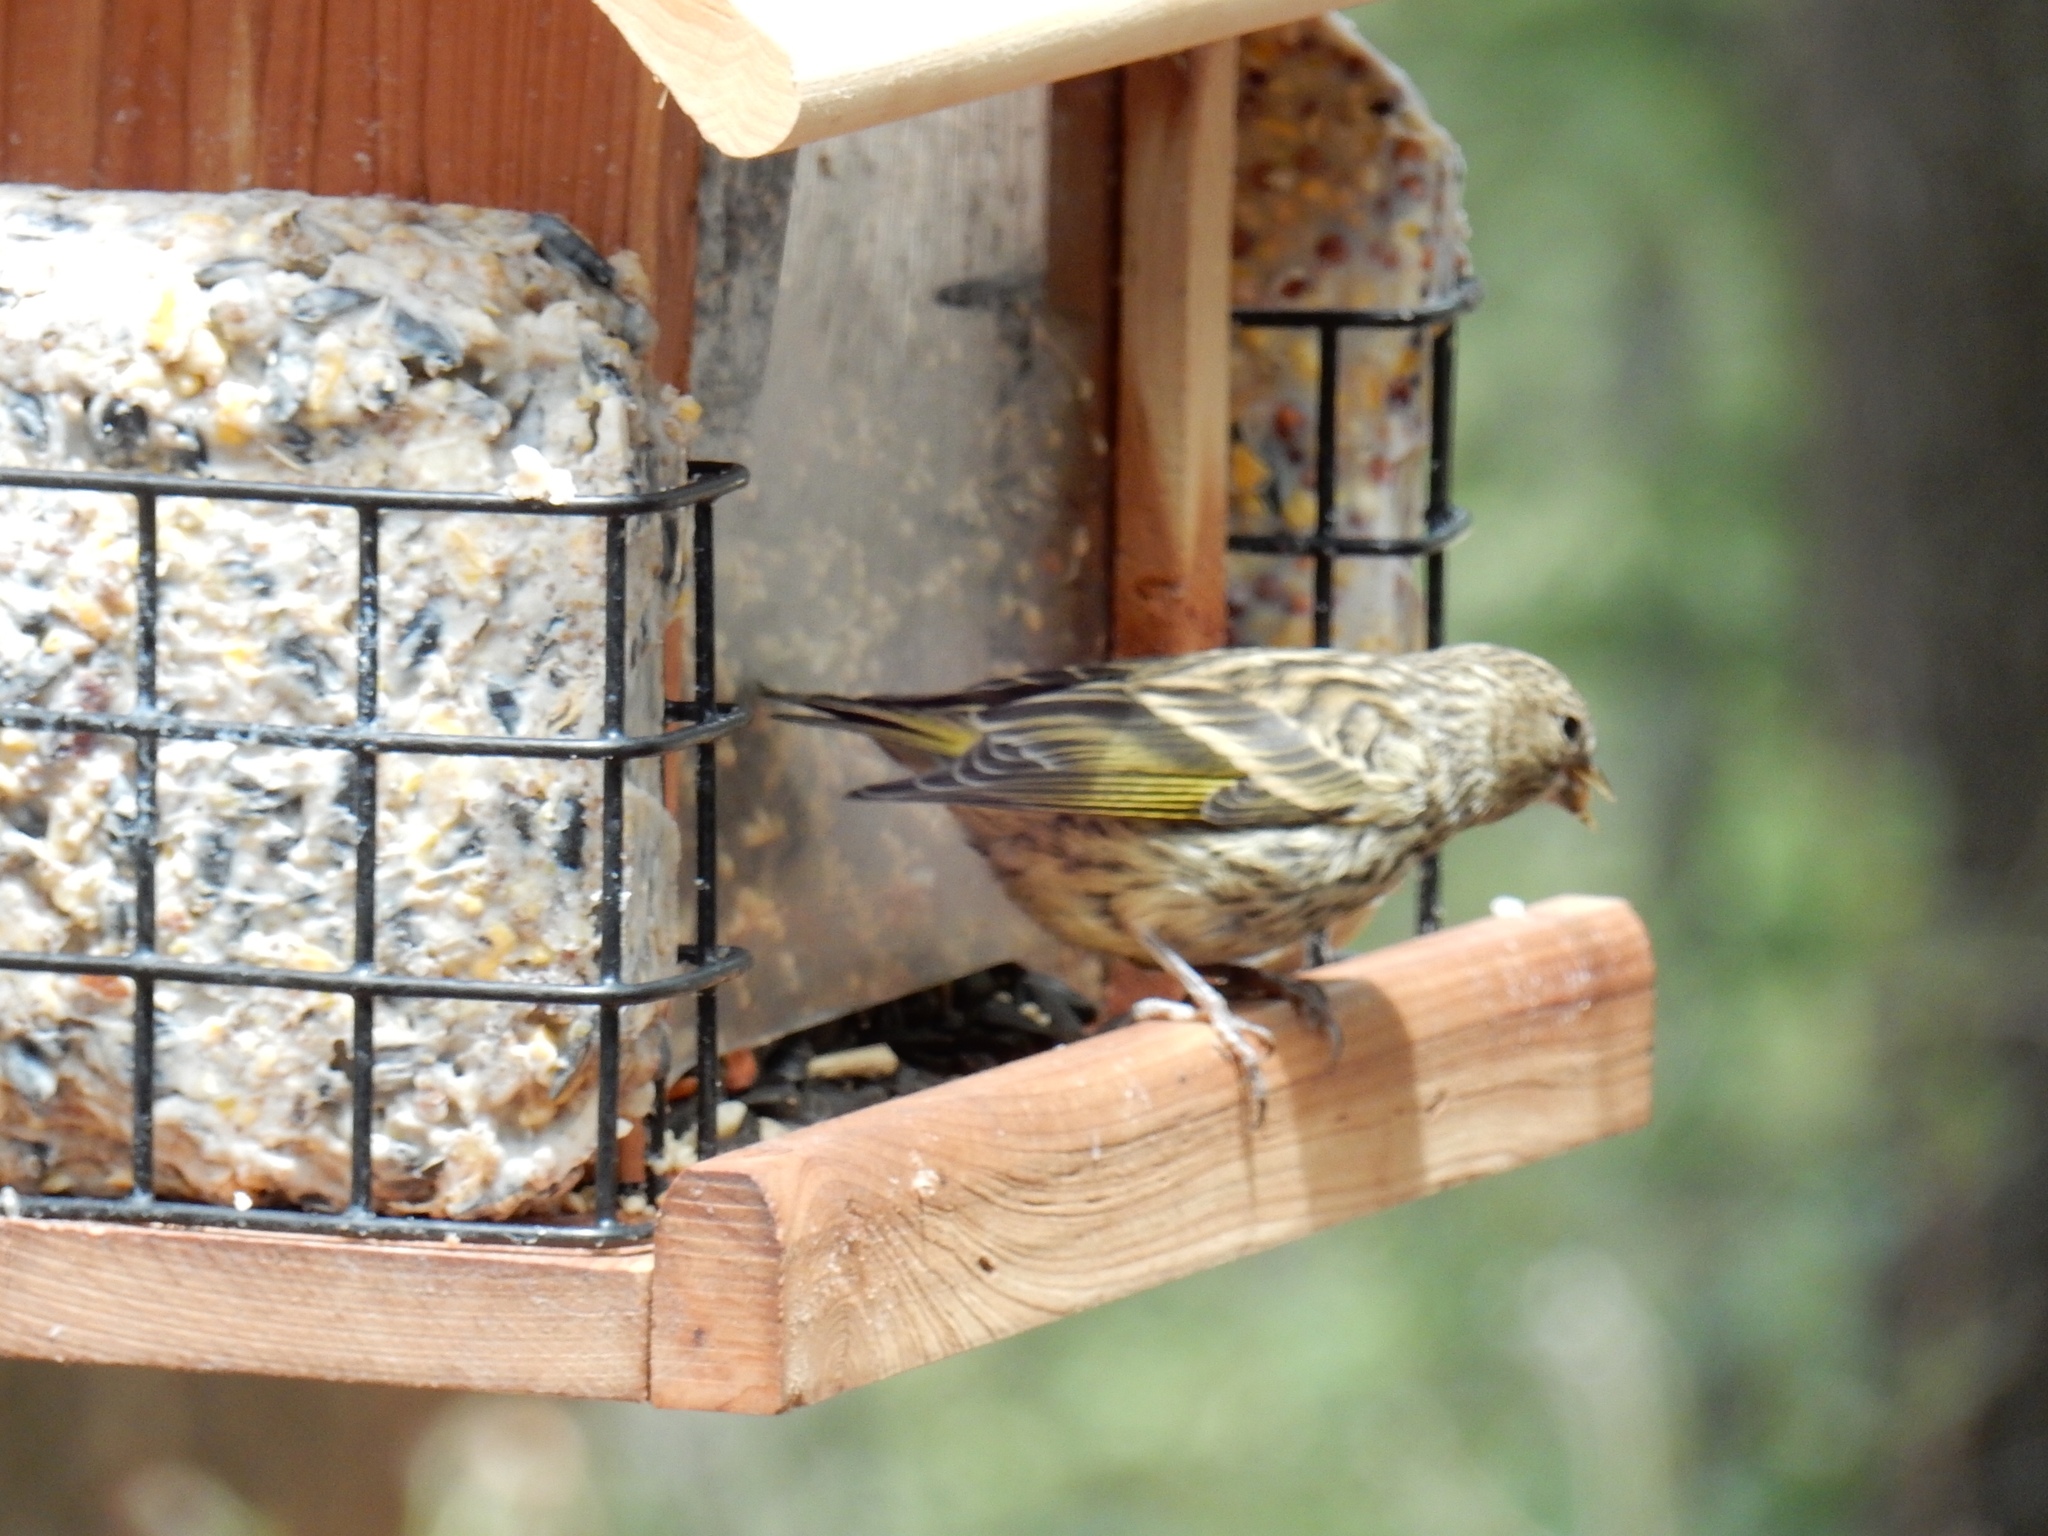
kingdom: Animalia
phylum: Chordata
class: Aves
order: Passeriformes
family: Fringillidae
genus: Spinus
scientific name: Spinus pinus
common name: Pine siskin
